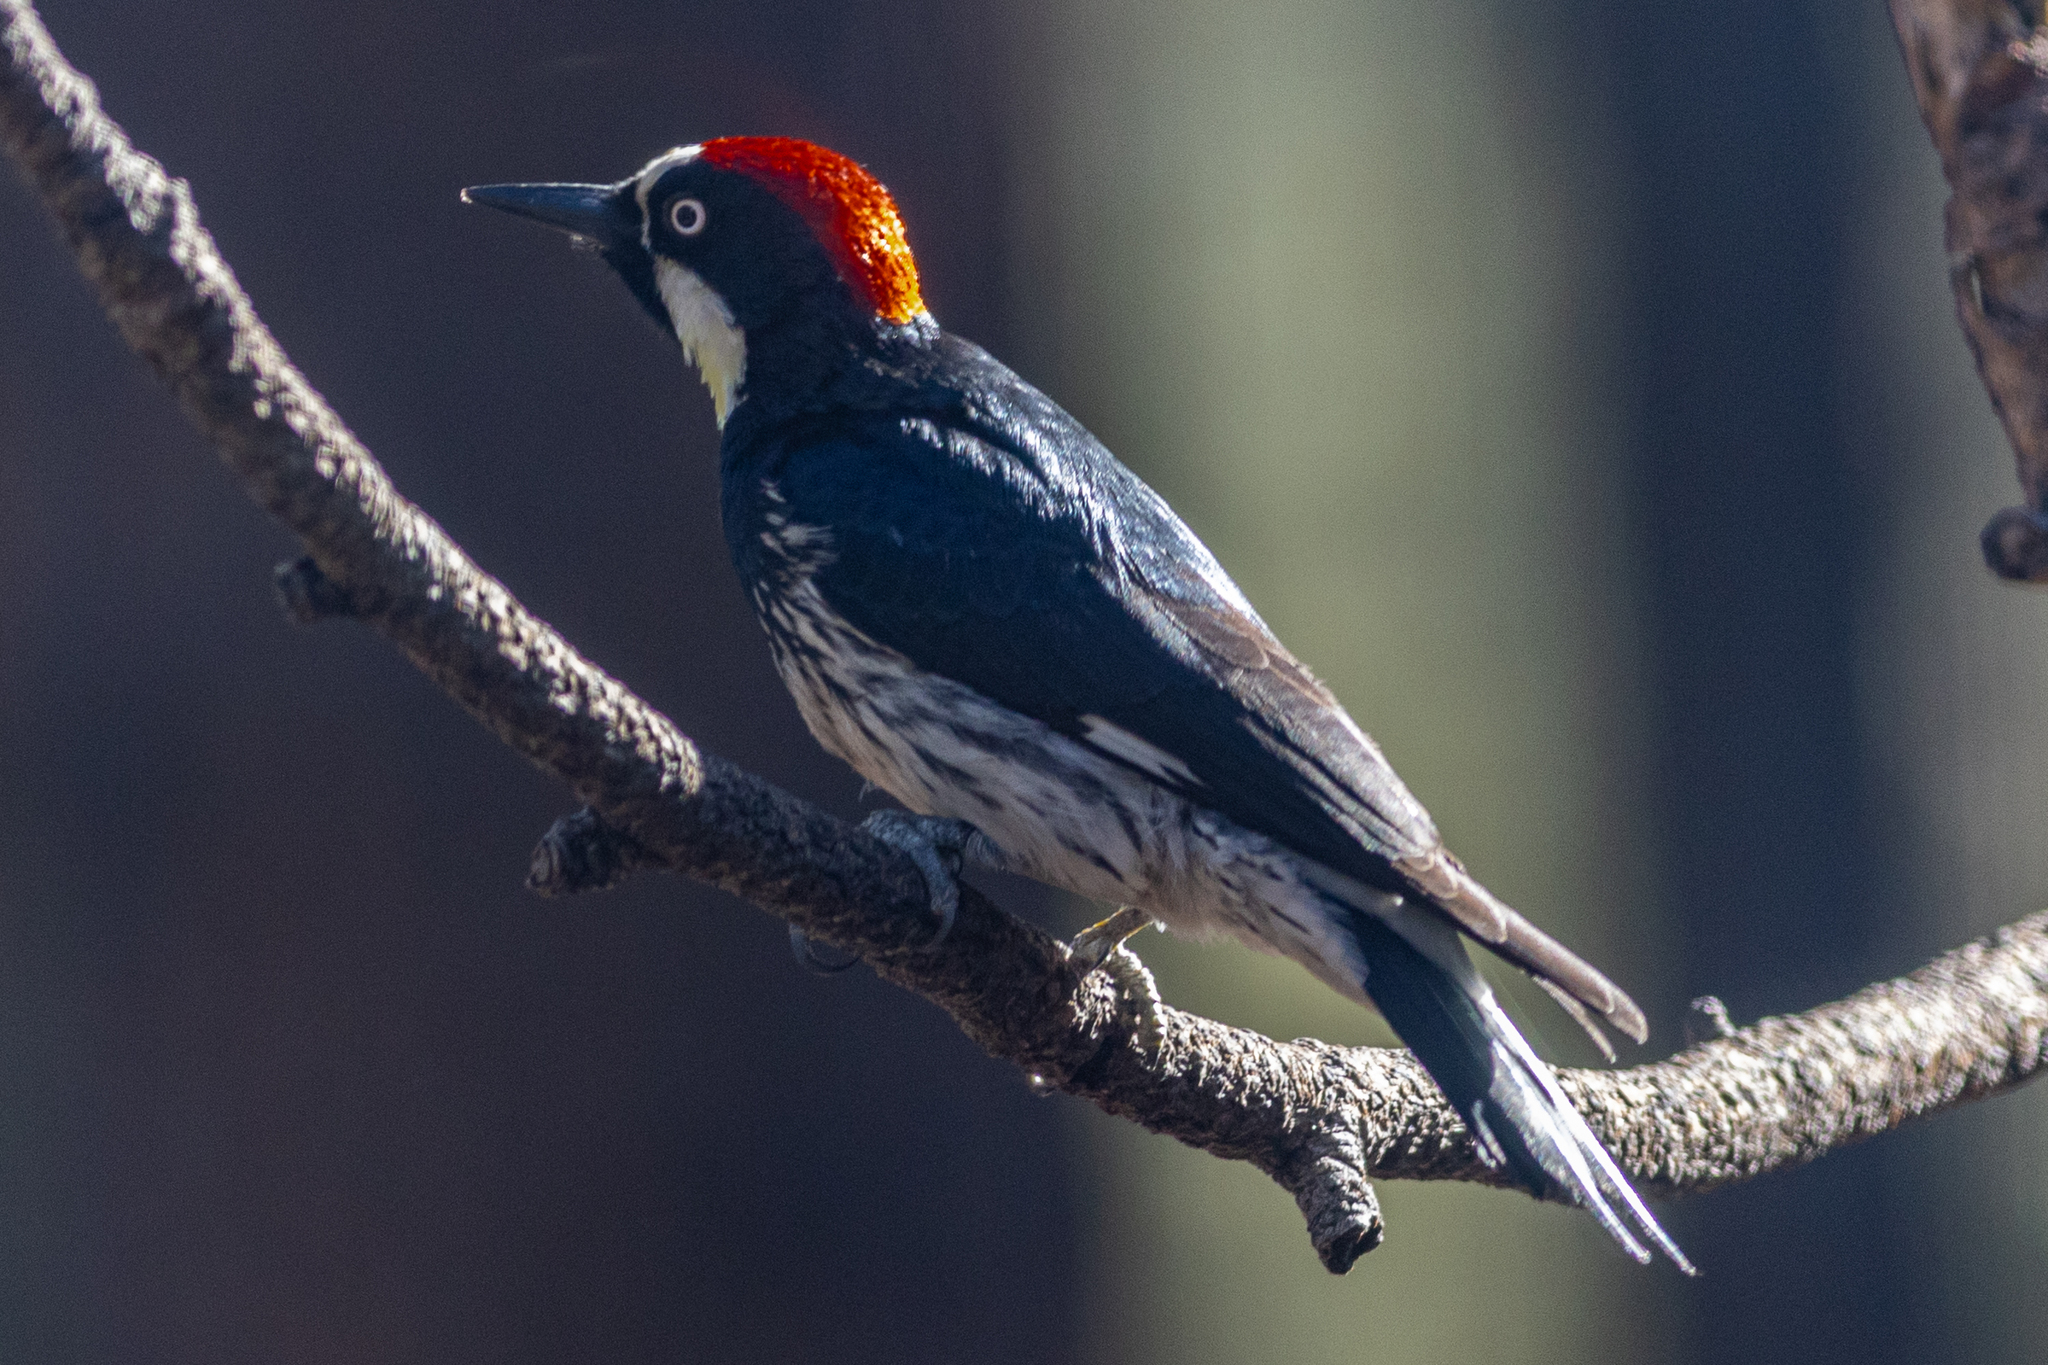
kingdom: Animalia
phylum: Chordata
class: Aves
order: Piciformes
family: Picidae
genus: Melanerpes
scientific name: Melanerpes formicivorus
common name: Acorn woodpecker
